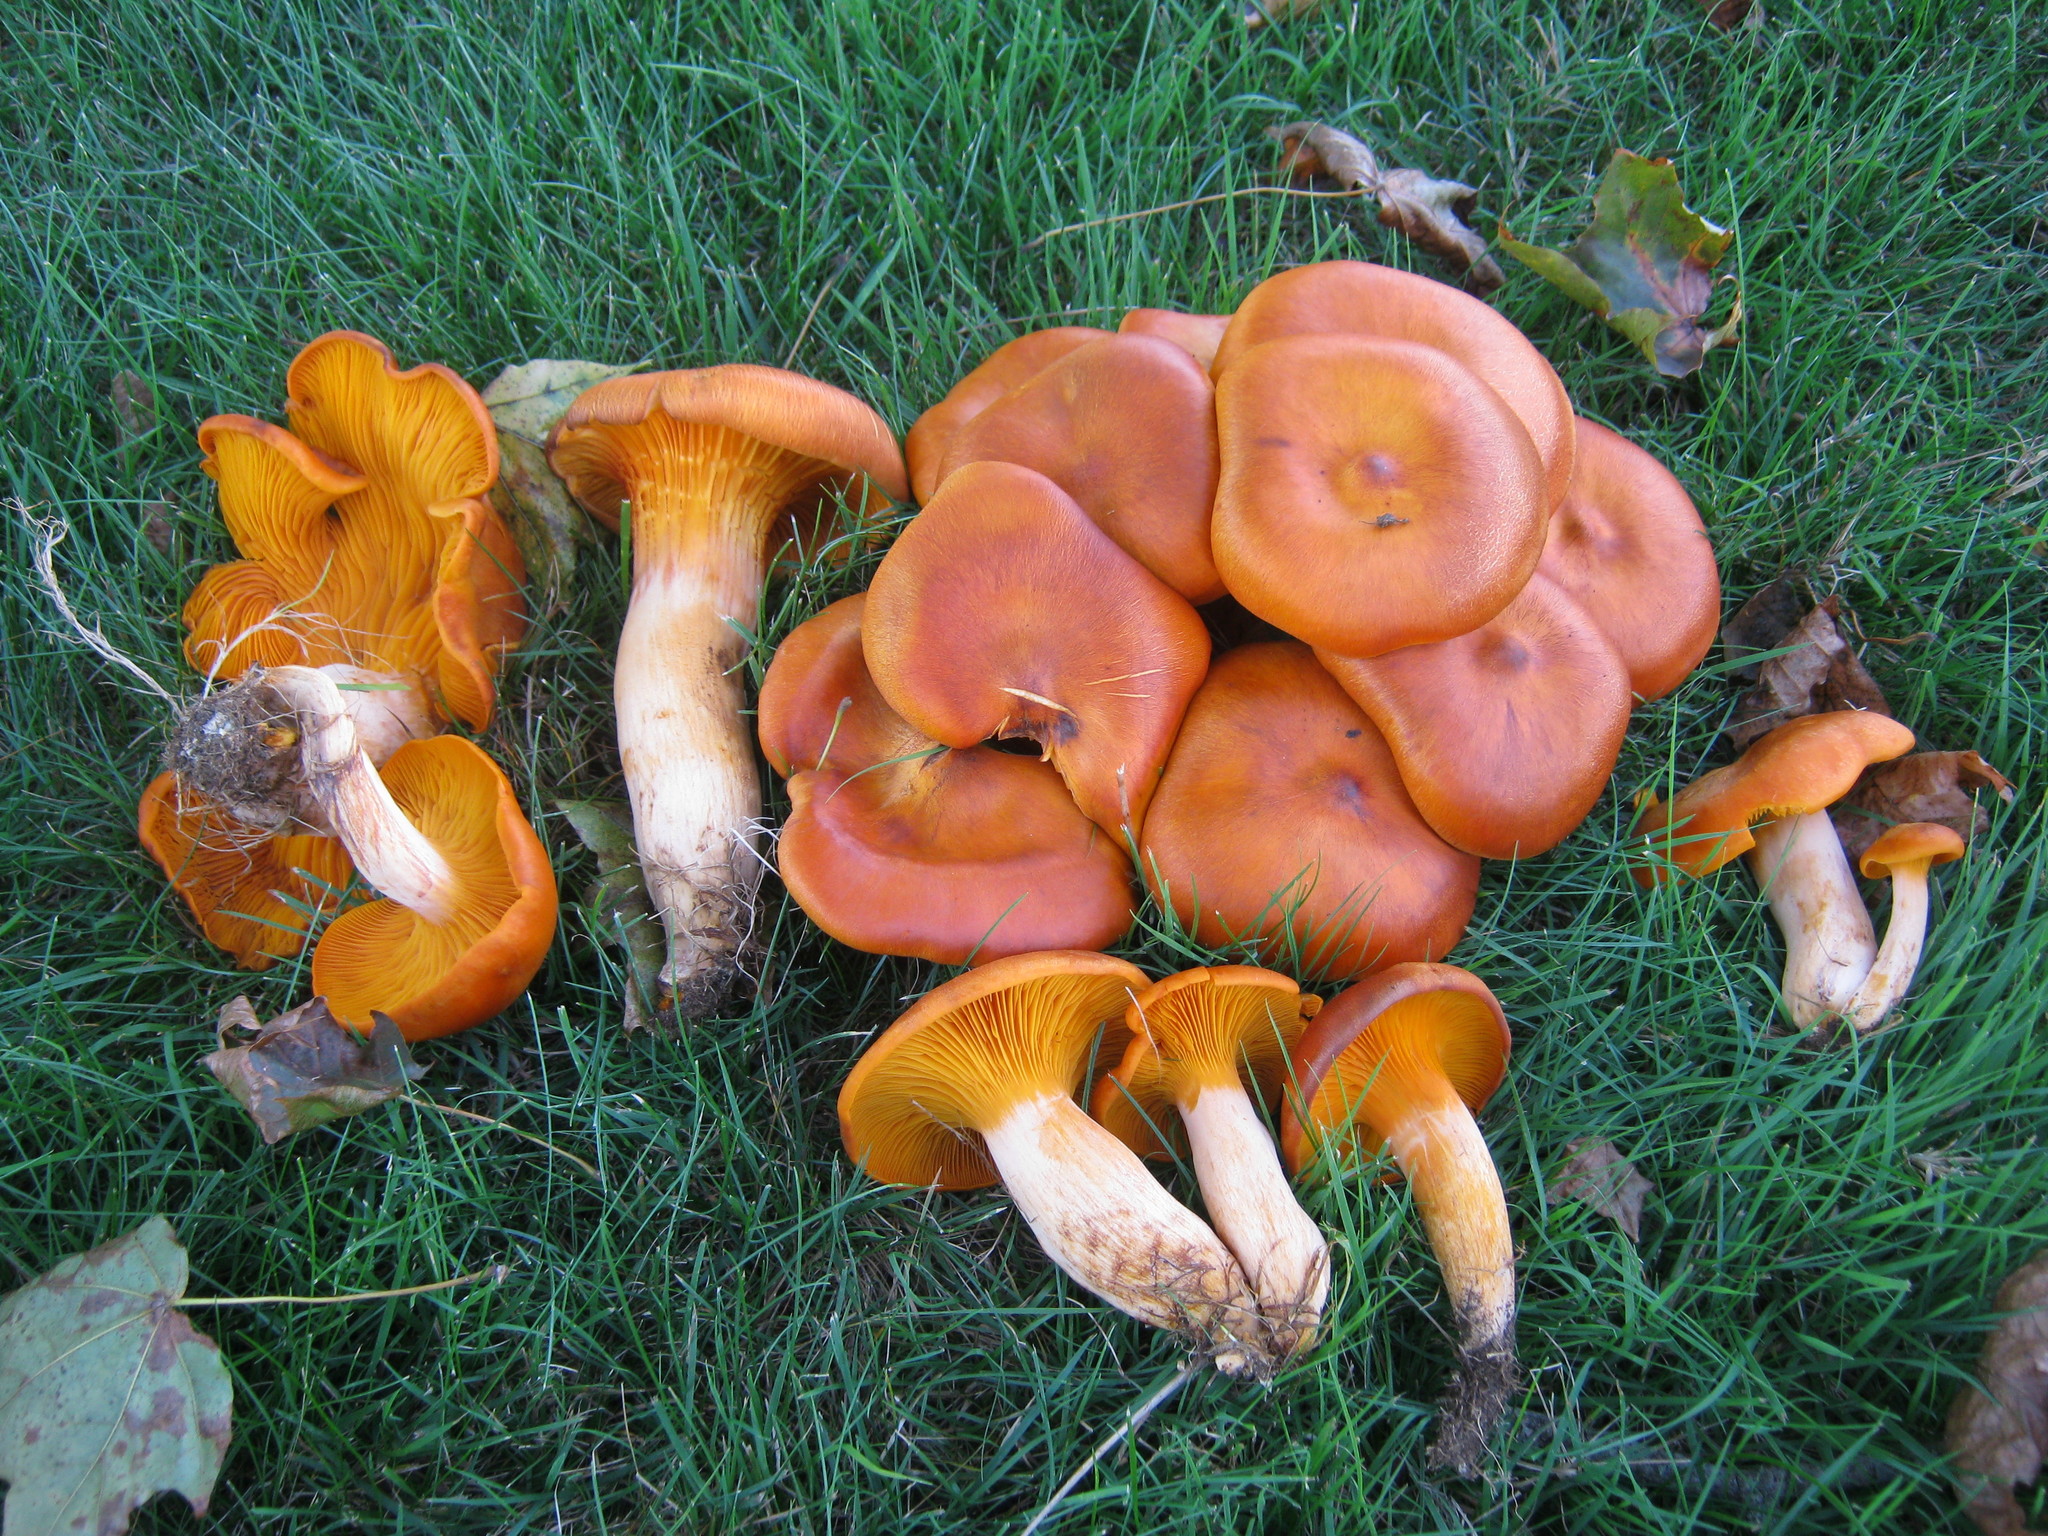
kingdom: Fungi
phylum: Basidiomycota
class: Agaricomycetes
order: Agaricales
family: Omphalotaceae
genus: Omphalotus
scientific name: Omphalotus illudens
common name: Jack o lantern
